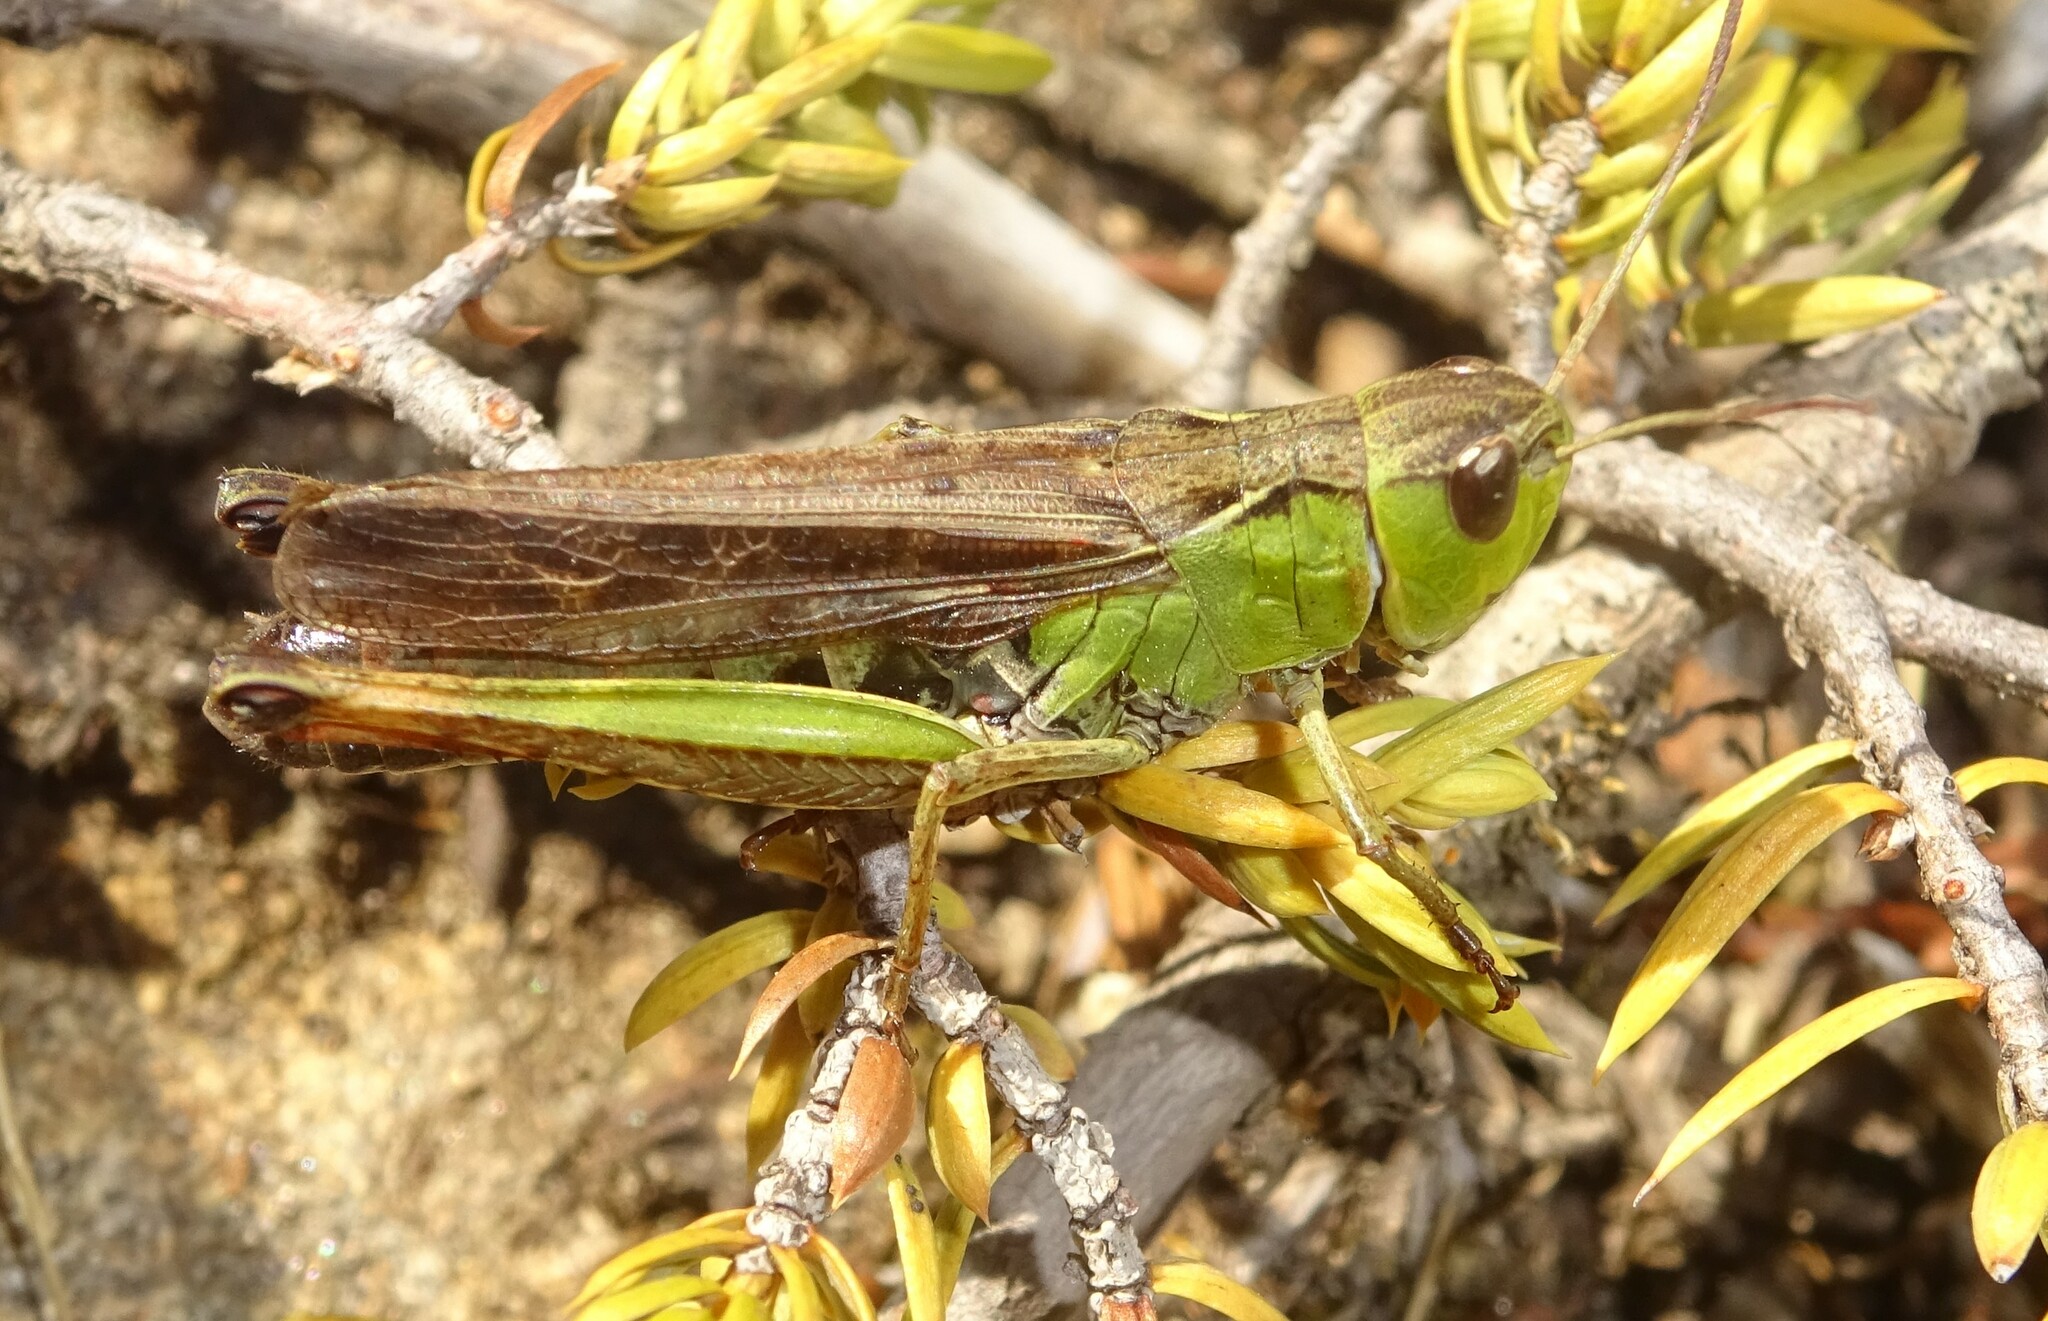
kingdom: Animalia
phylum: Arthropoda
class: Insecta
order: Orthoptera
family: Acrididae
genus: Stauroderus
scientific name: Stauroderus scalaris
